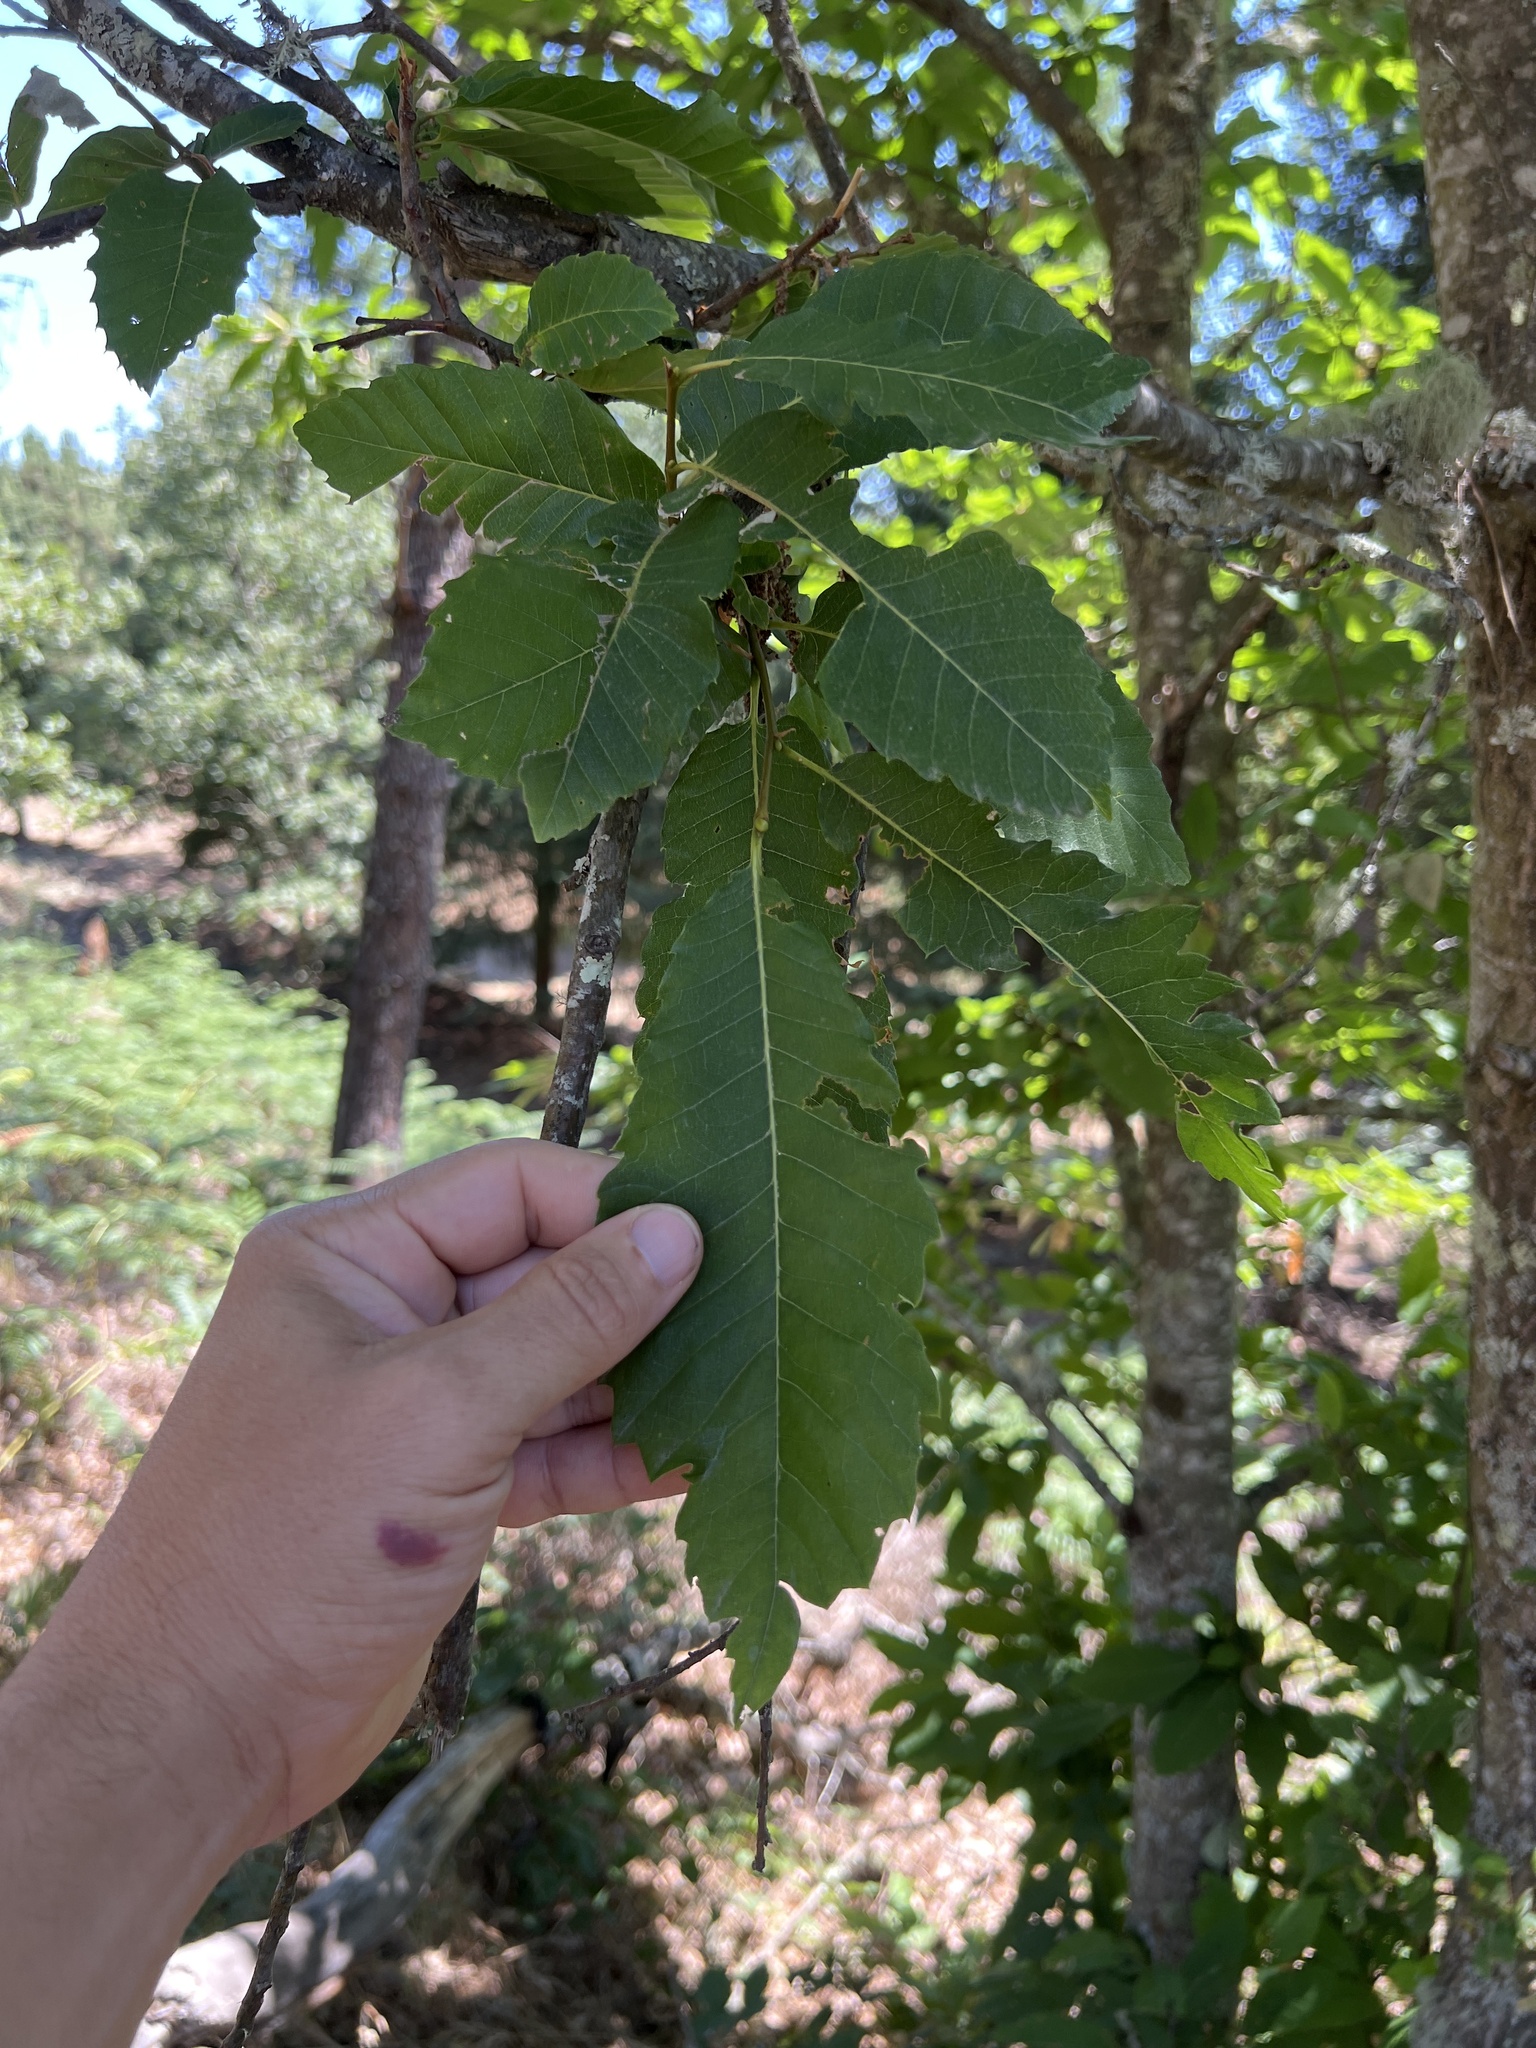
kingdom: Plantae
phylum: Tracheophyta
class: Magnoliopsida
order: Fagales
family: Fagaceae
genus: Castanea
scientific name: Castanea sativa
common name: Sweet chestnut
